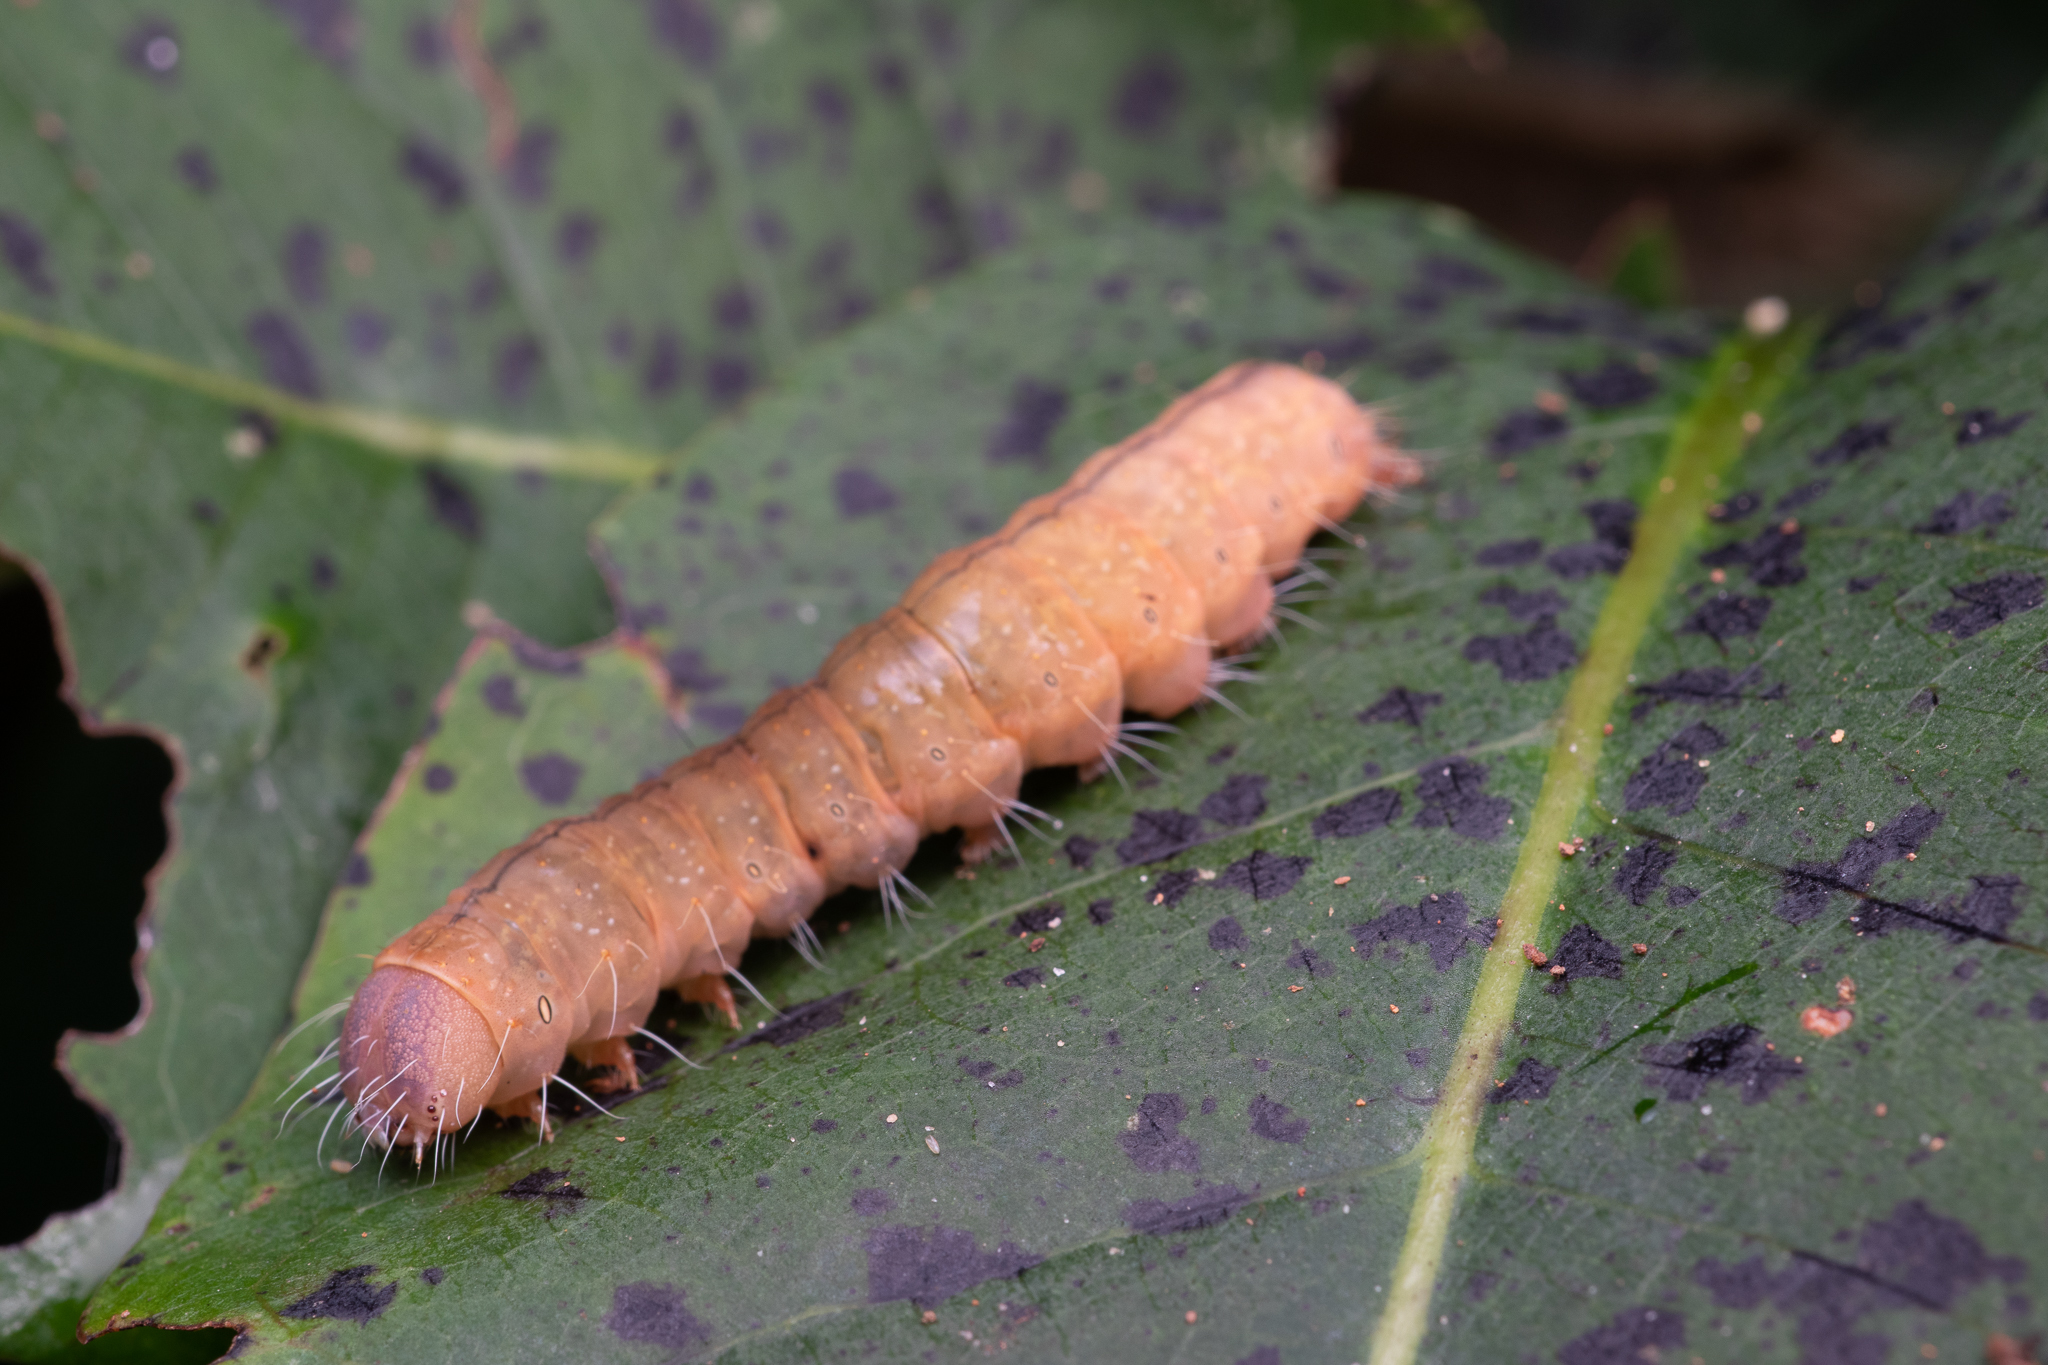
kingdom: Animalia
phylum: Arthropoda
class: Insecta
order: Lepidoptera
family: Noctuidae
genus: Acronicta
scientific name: Acronicta afflicta
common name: Afflicted dagger moth
